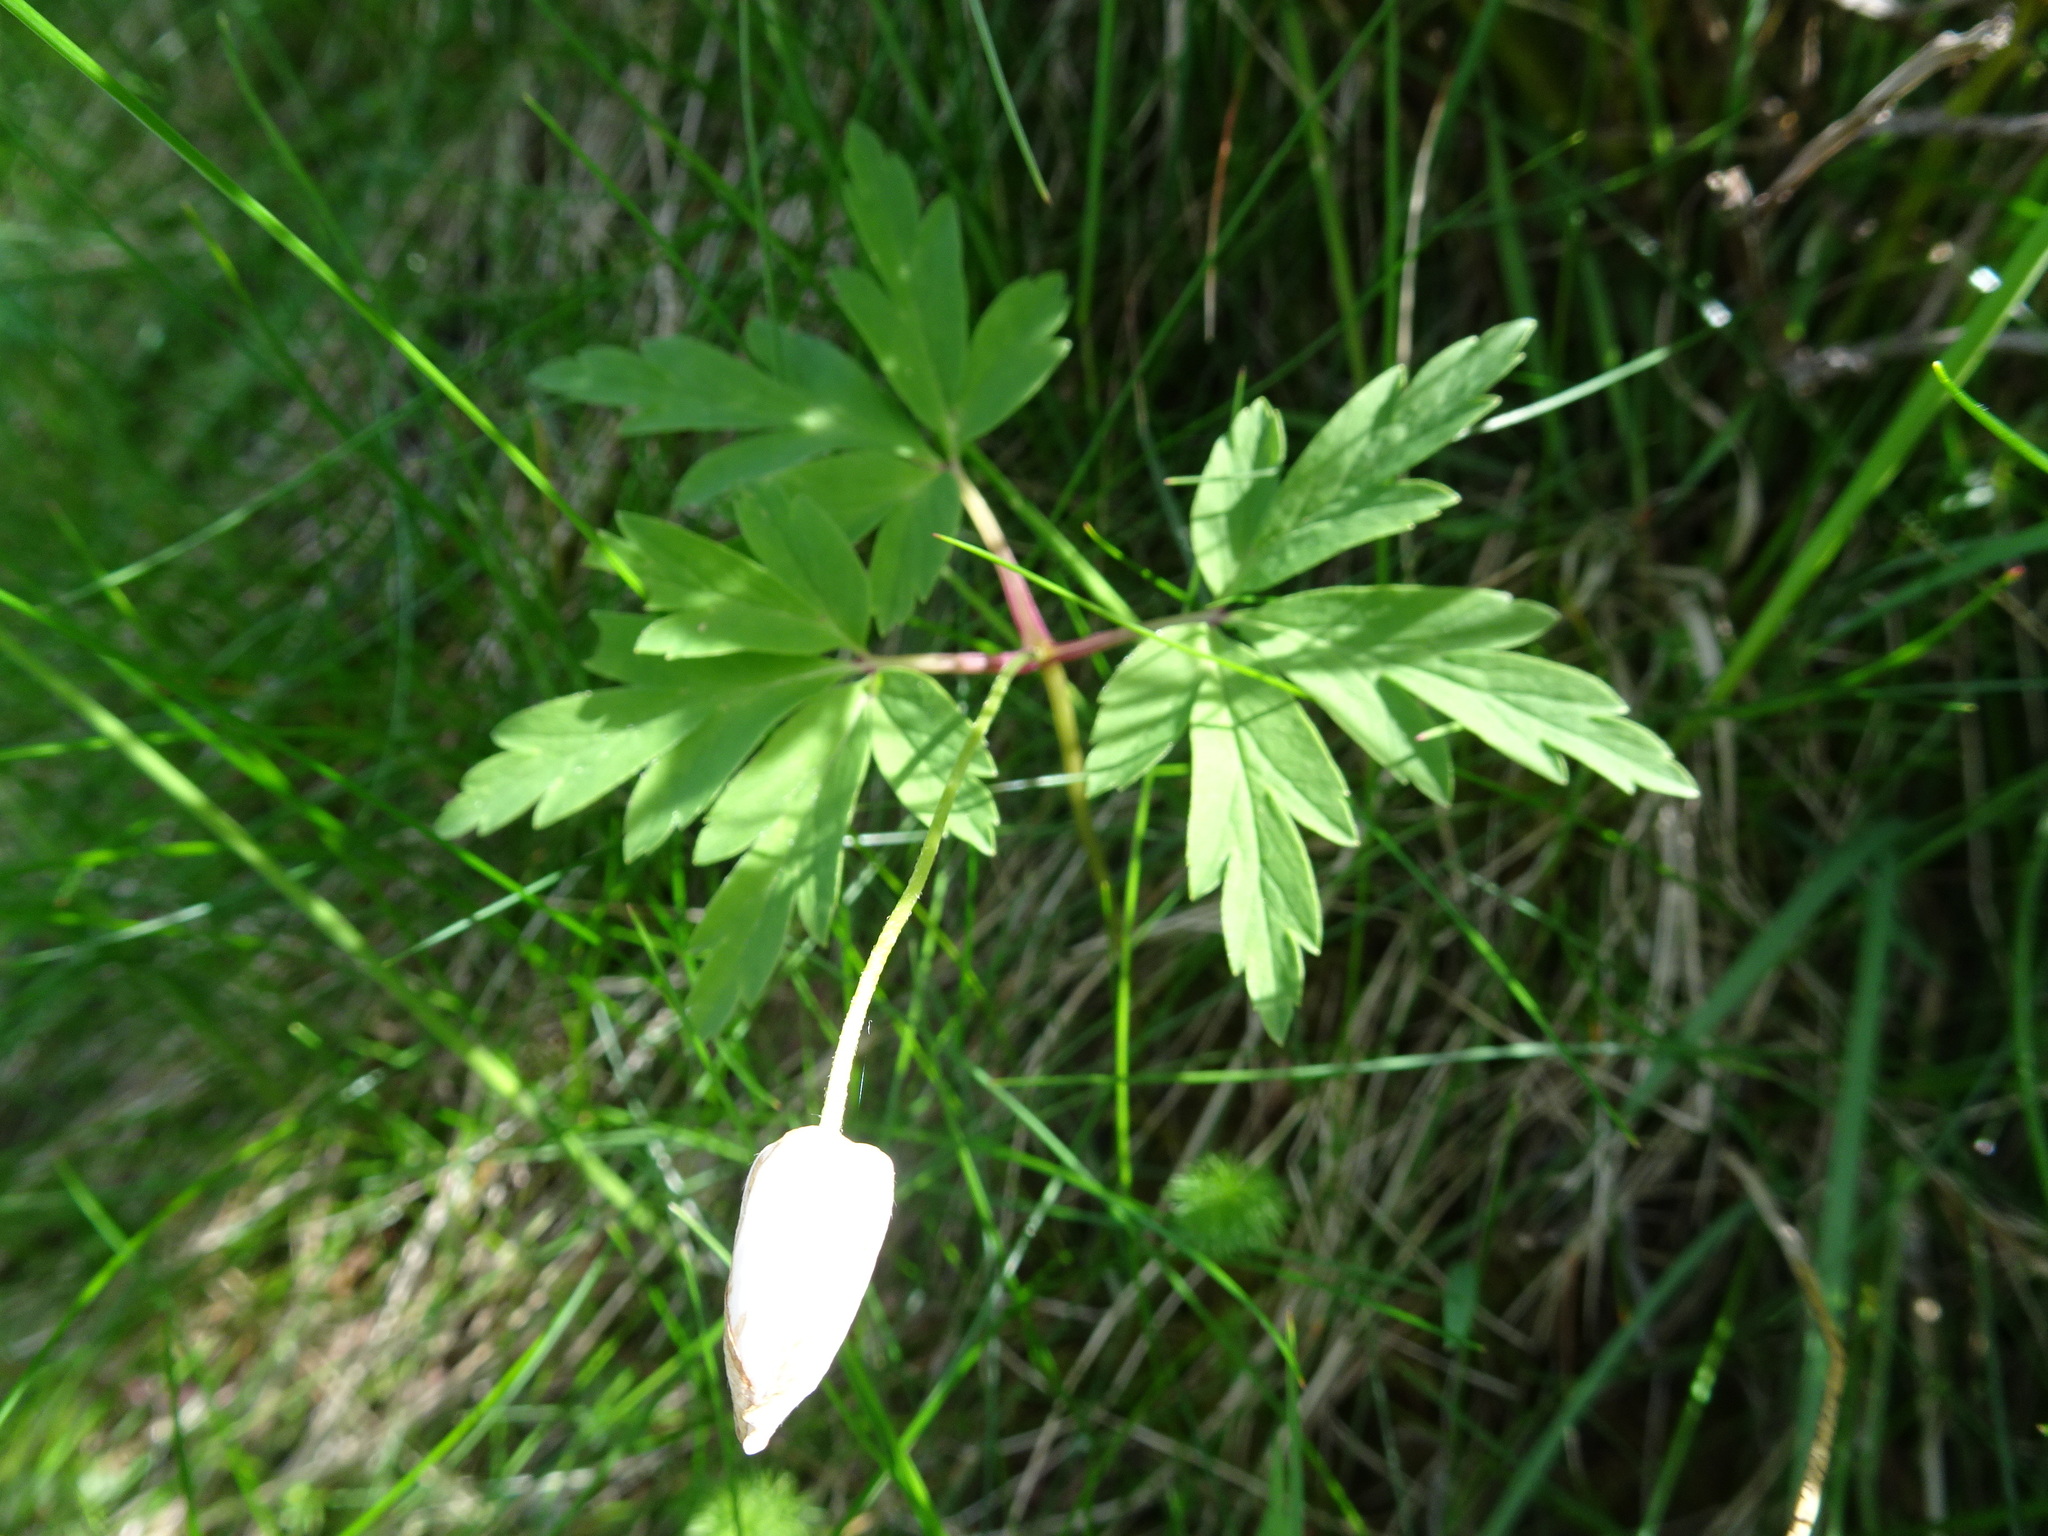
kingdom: Plantae
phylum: Tracheophyta
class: Magnoliopsida
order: Ranunculales
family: Ranunculaceae
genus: Anemone
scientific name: Anemone nemorosa
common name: Wood anemone
